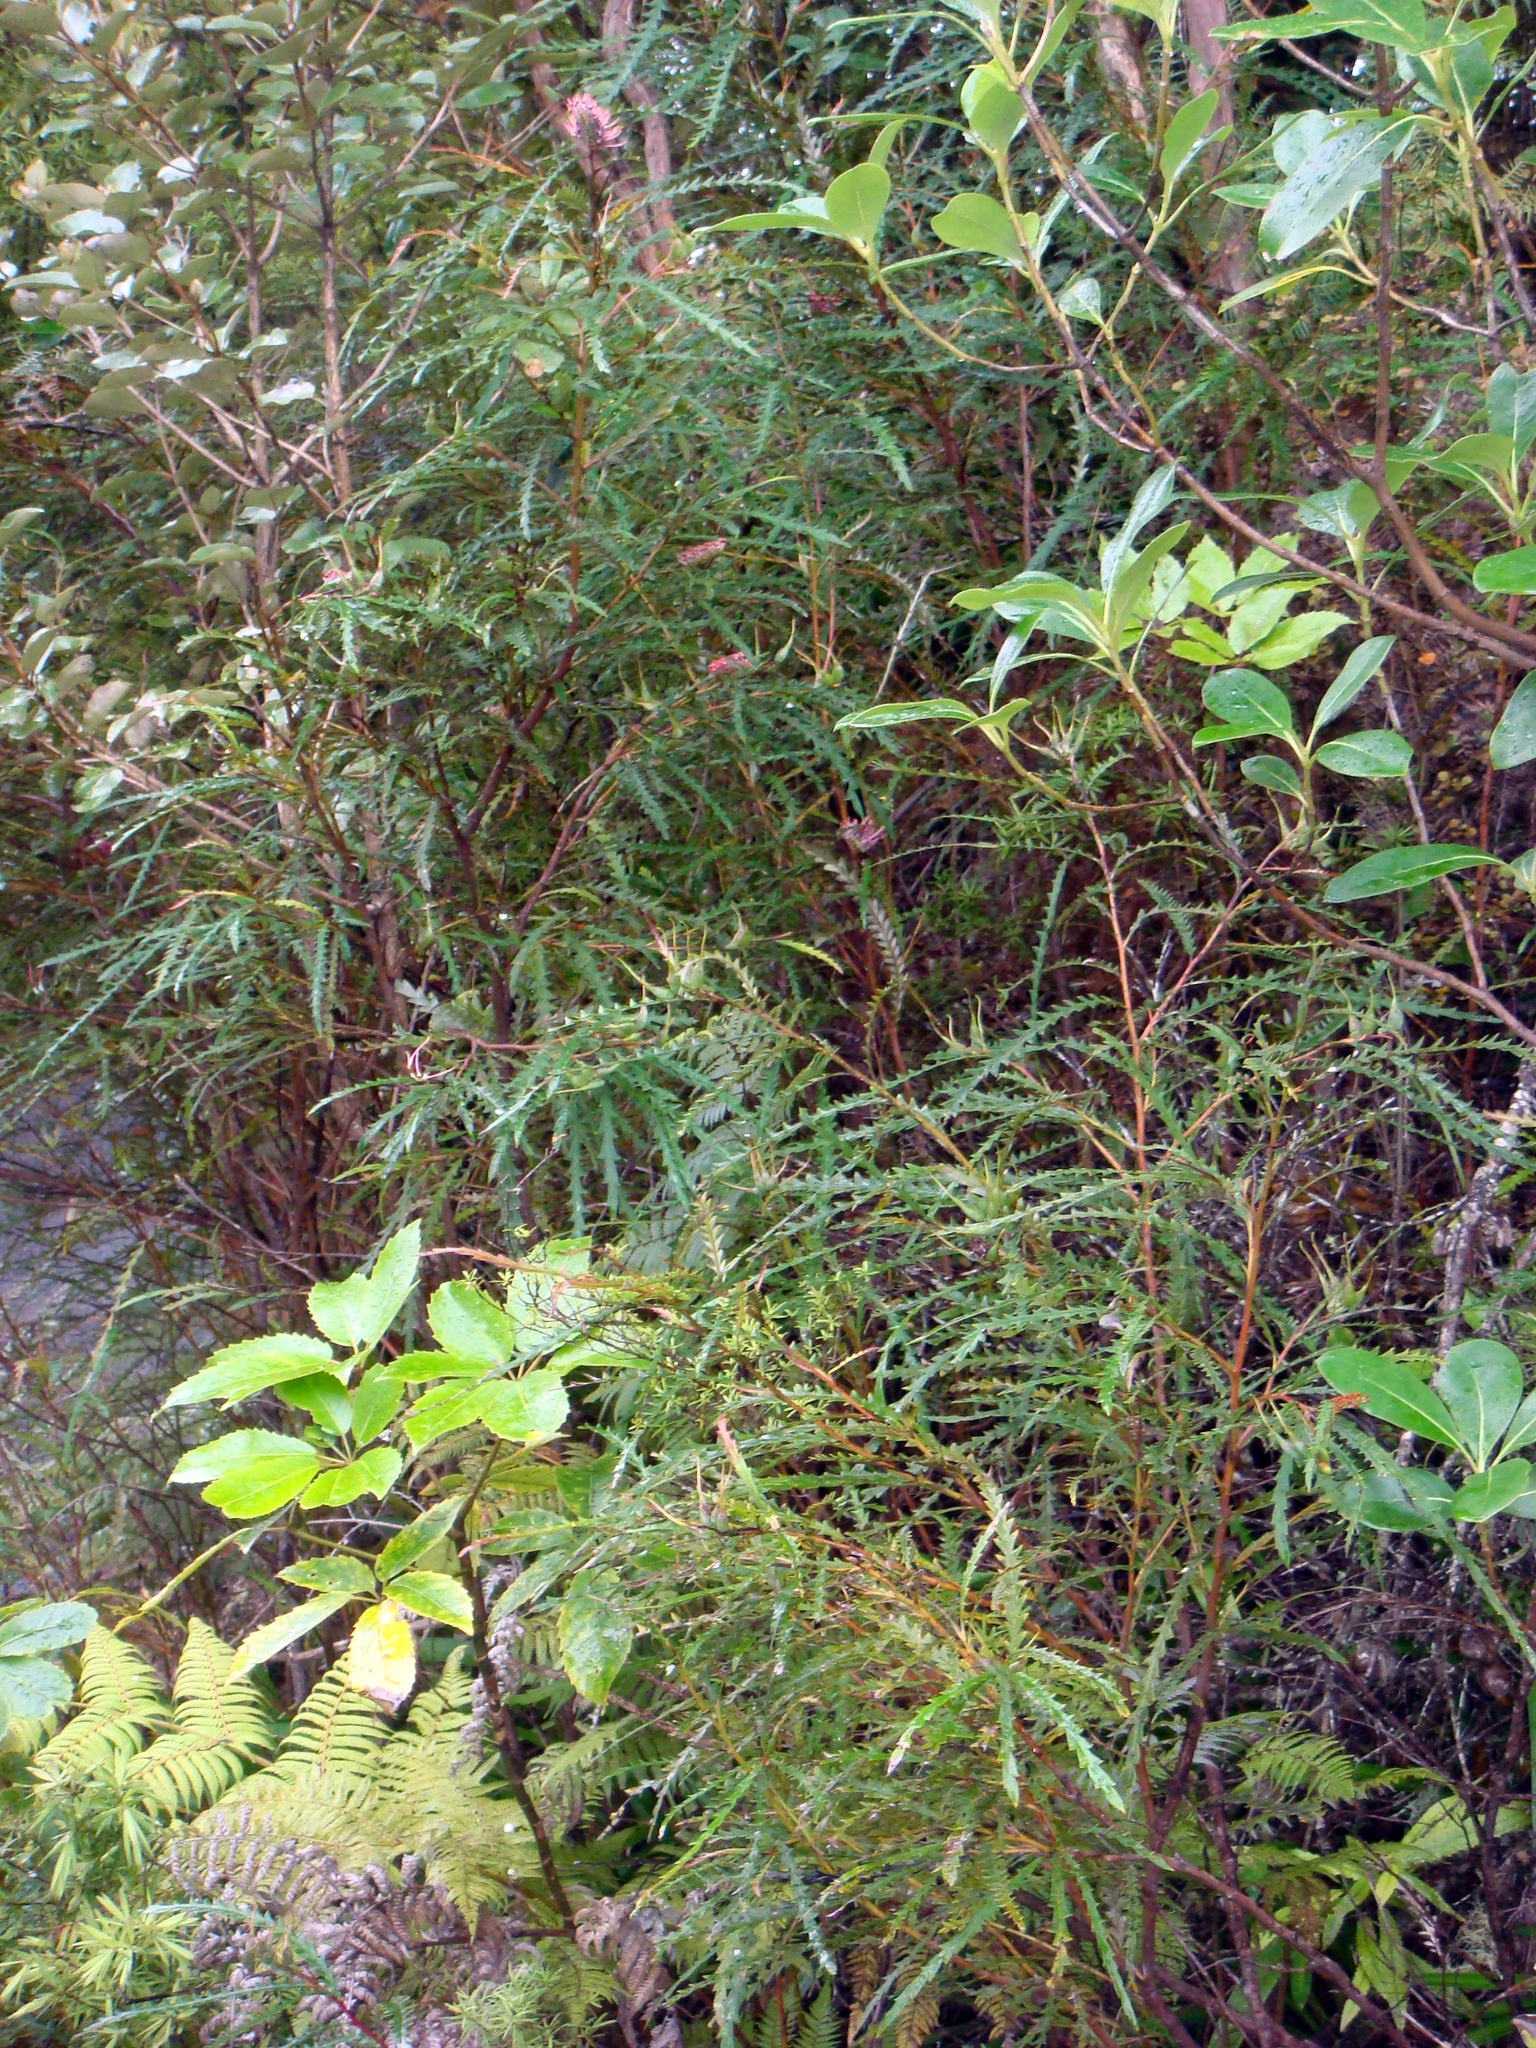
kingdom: Plantae
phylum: Tracheophyta
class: Magnoliopsida
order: Proteales
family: Proteaceae
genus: Grevillea
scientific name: Grevillea aspleniifolia
